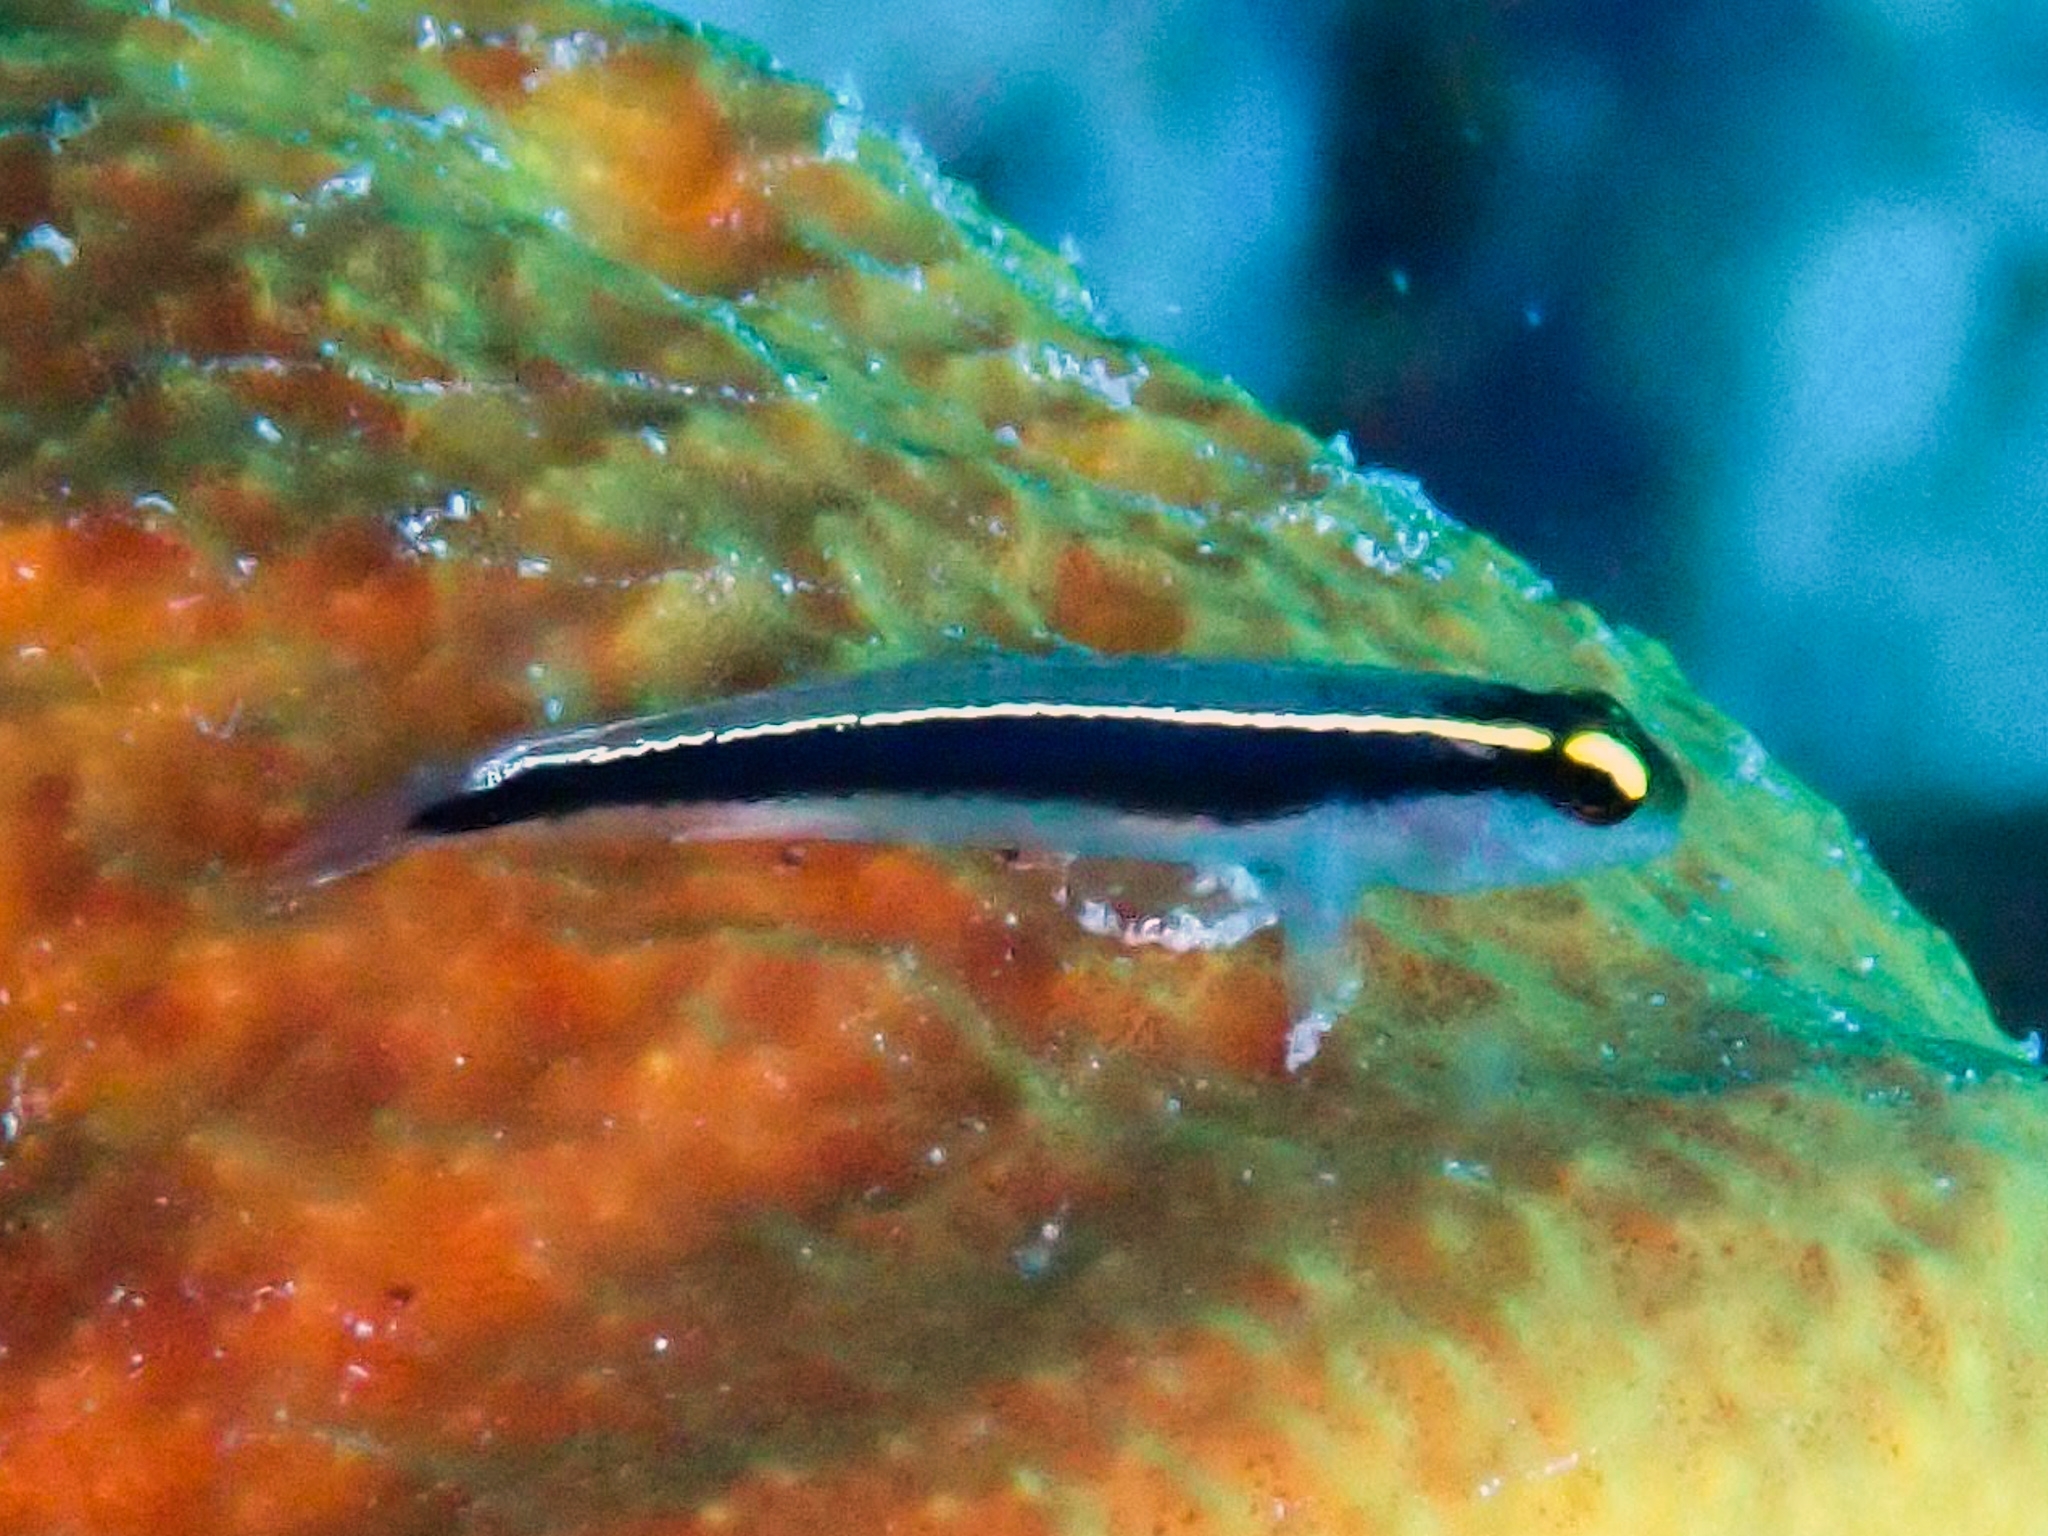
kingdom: Animalia
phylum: Chordata
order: Perciformes
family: Gobiidae
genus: Elacatinus
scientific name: Elacatinus centralis
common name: Cayman sponge goby
